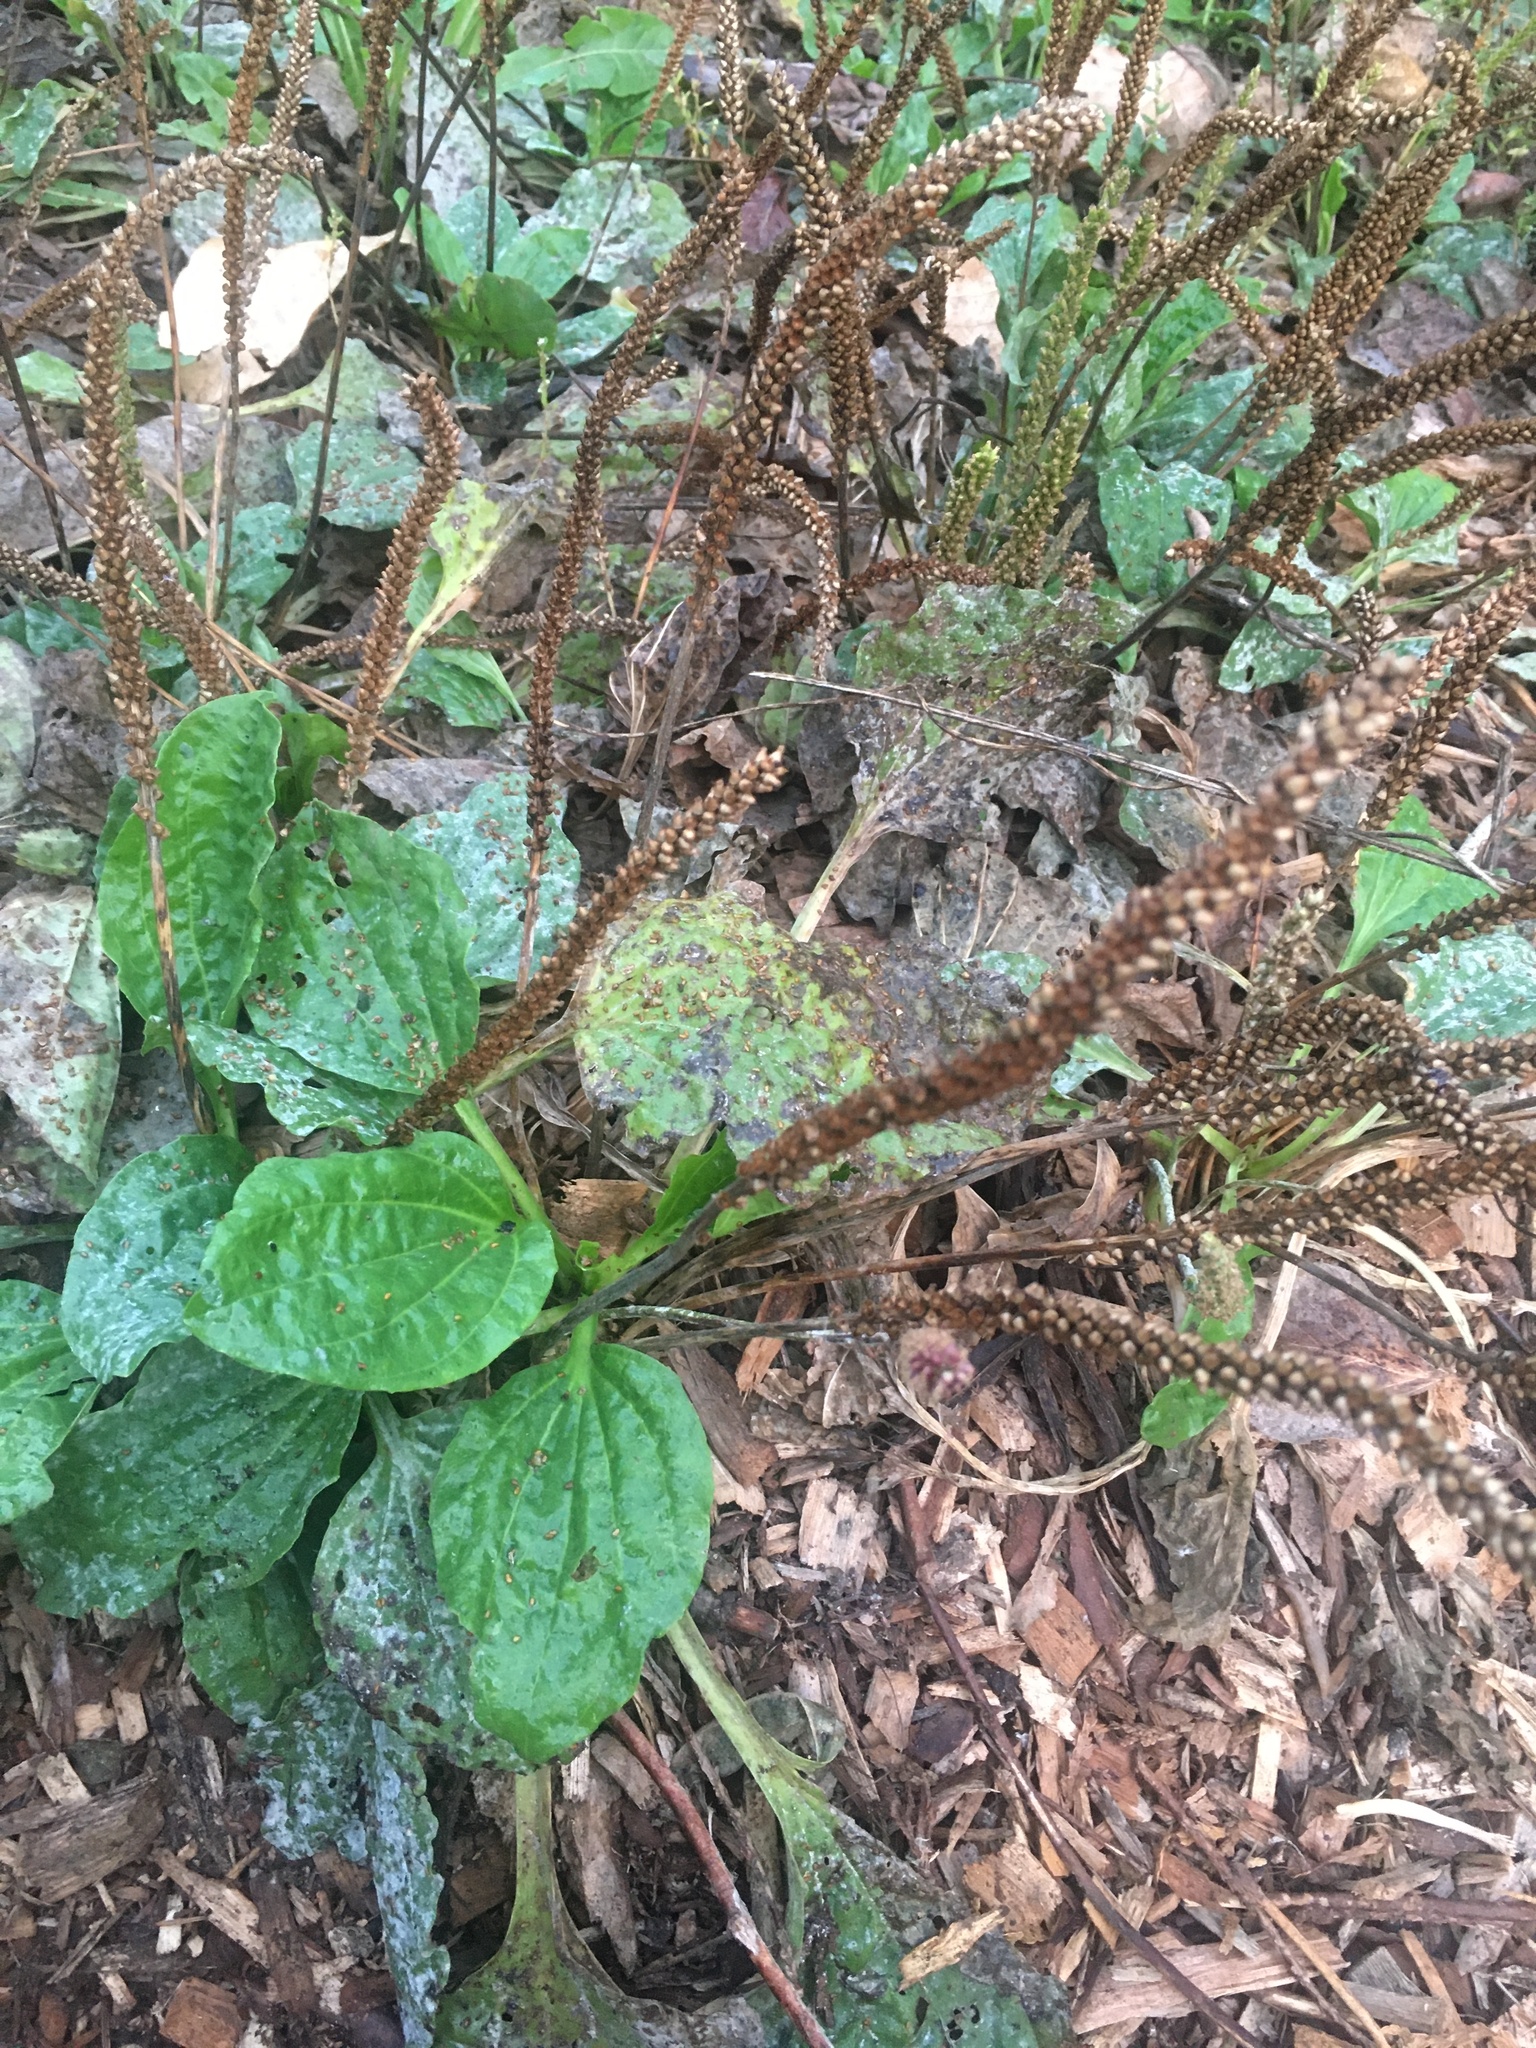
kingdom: Plantae
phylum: Tracheophyta
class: Magnoliopsida
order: Lamiales
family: Plantaginaceae
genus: Plantago
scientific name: Plantago major
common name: Common plantain
